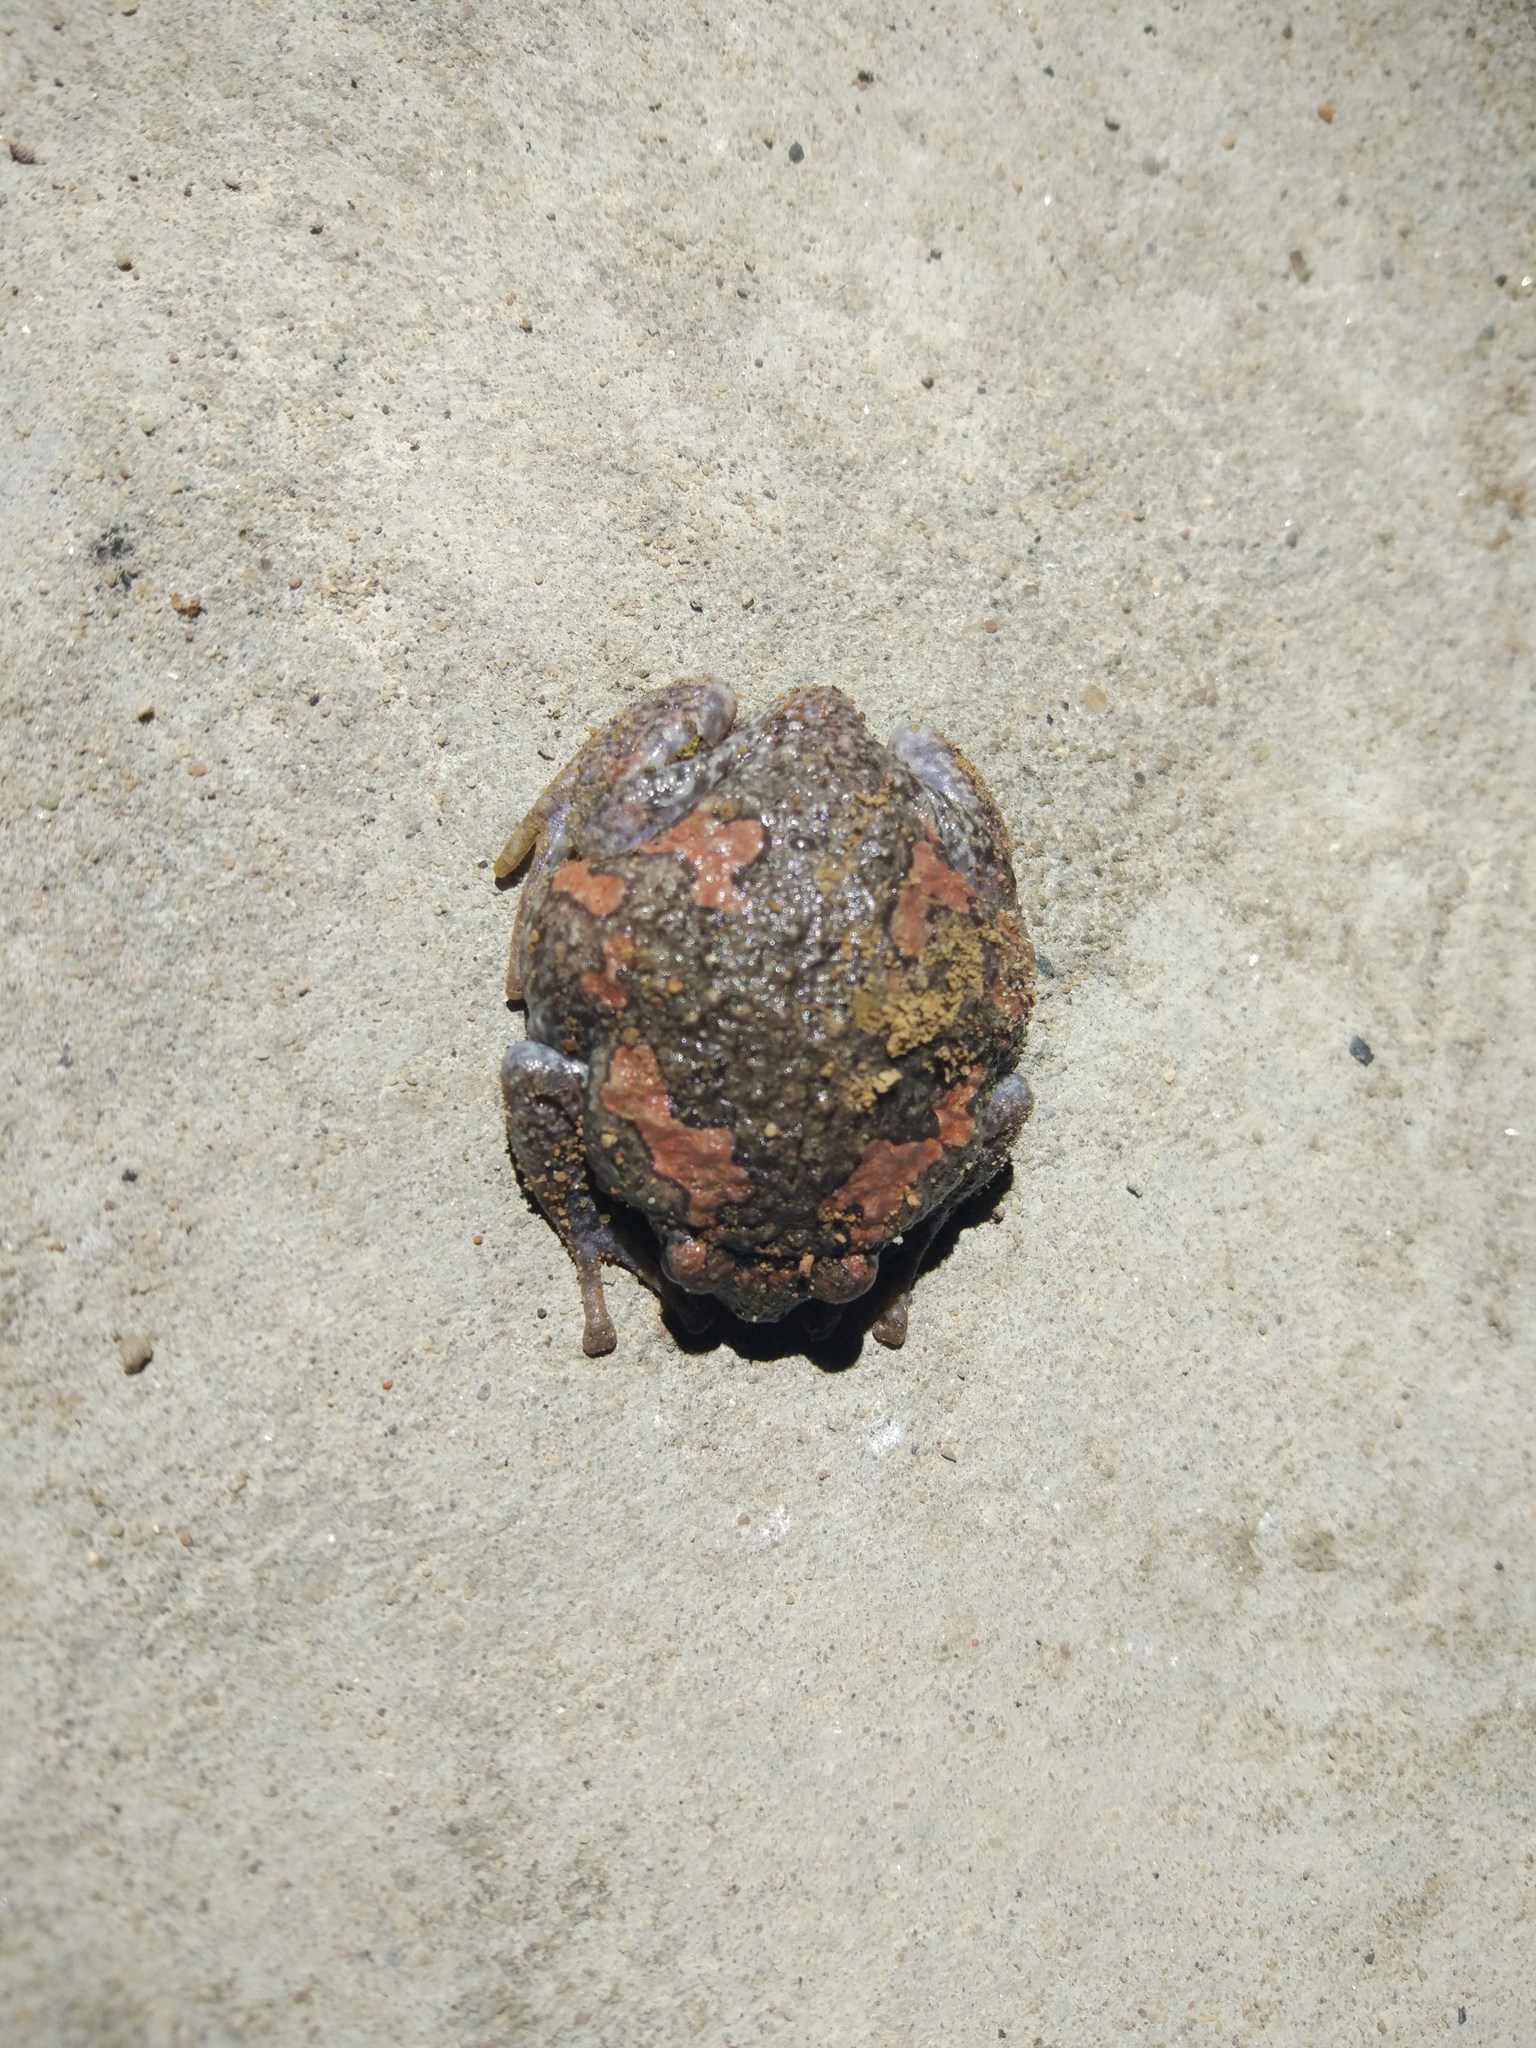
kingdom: Animalia
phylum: Chordata
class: Amphibia
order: Anura
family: Microhylidae
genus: Uperodon
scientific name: Uperodon taprobanicus
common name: Ceylon kaloula
